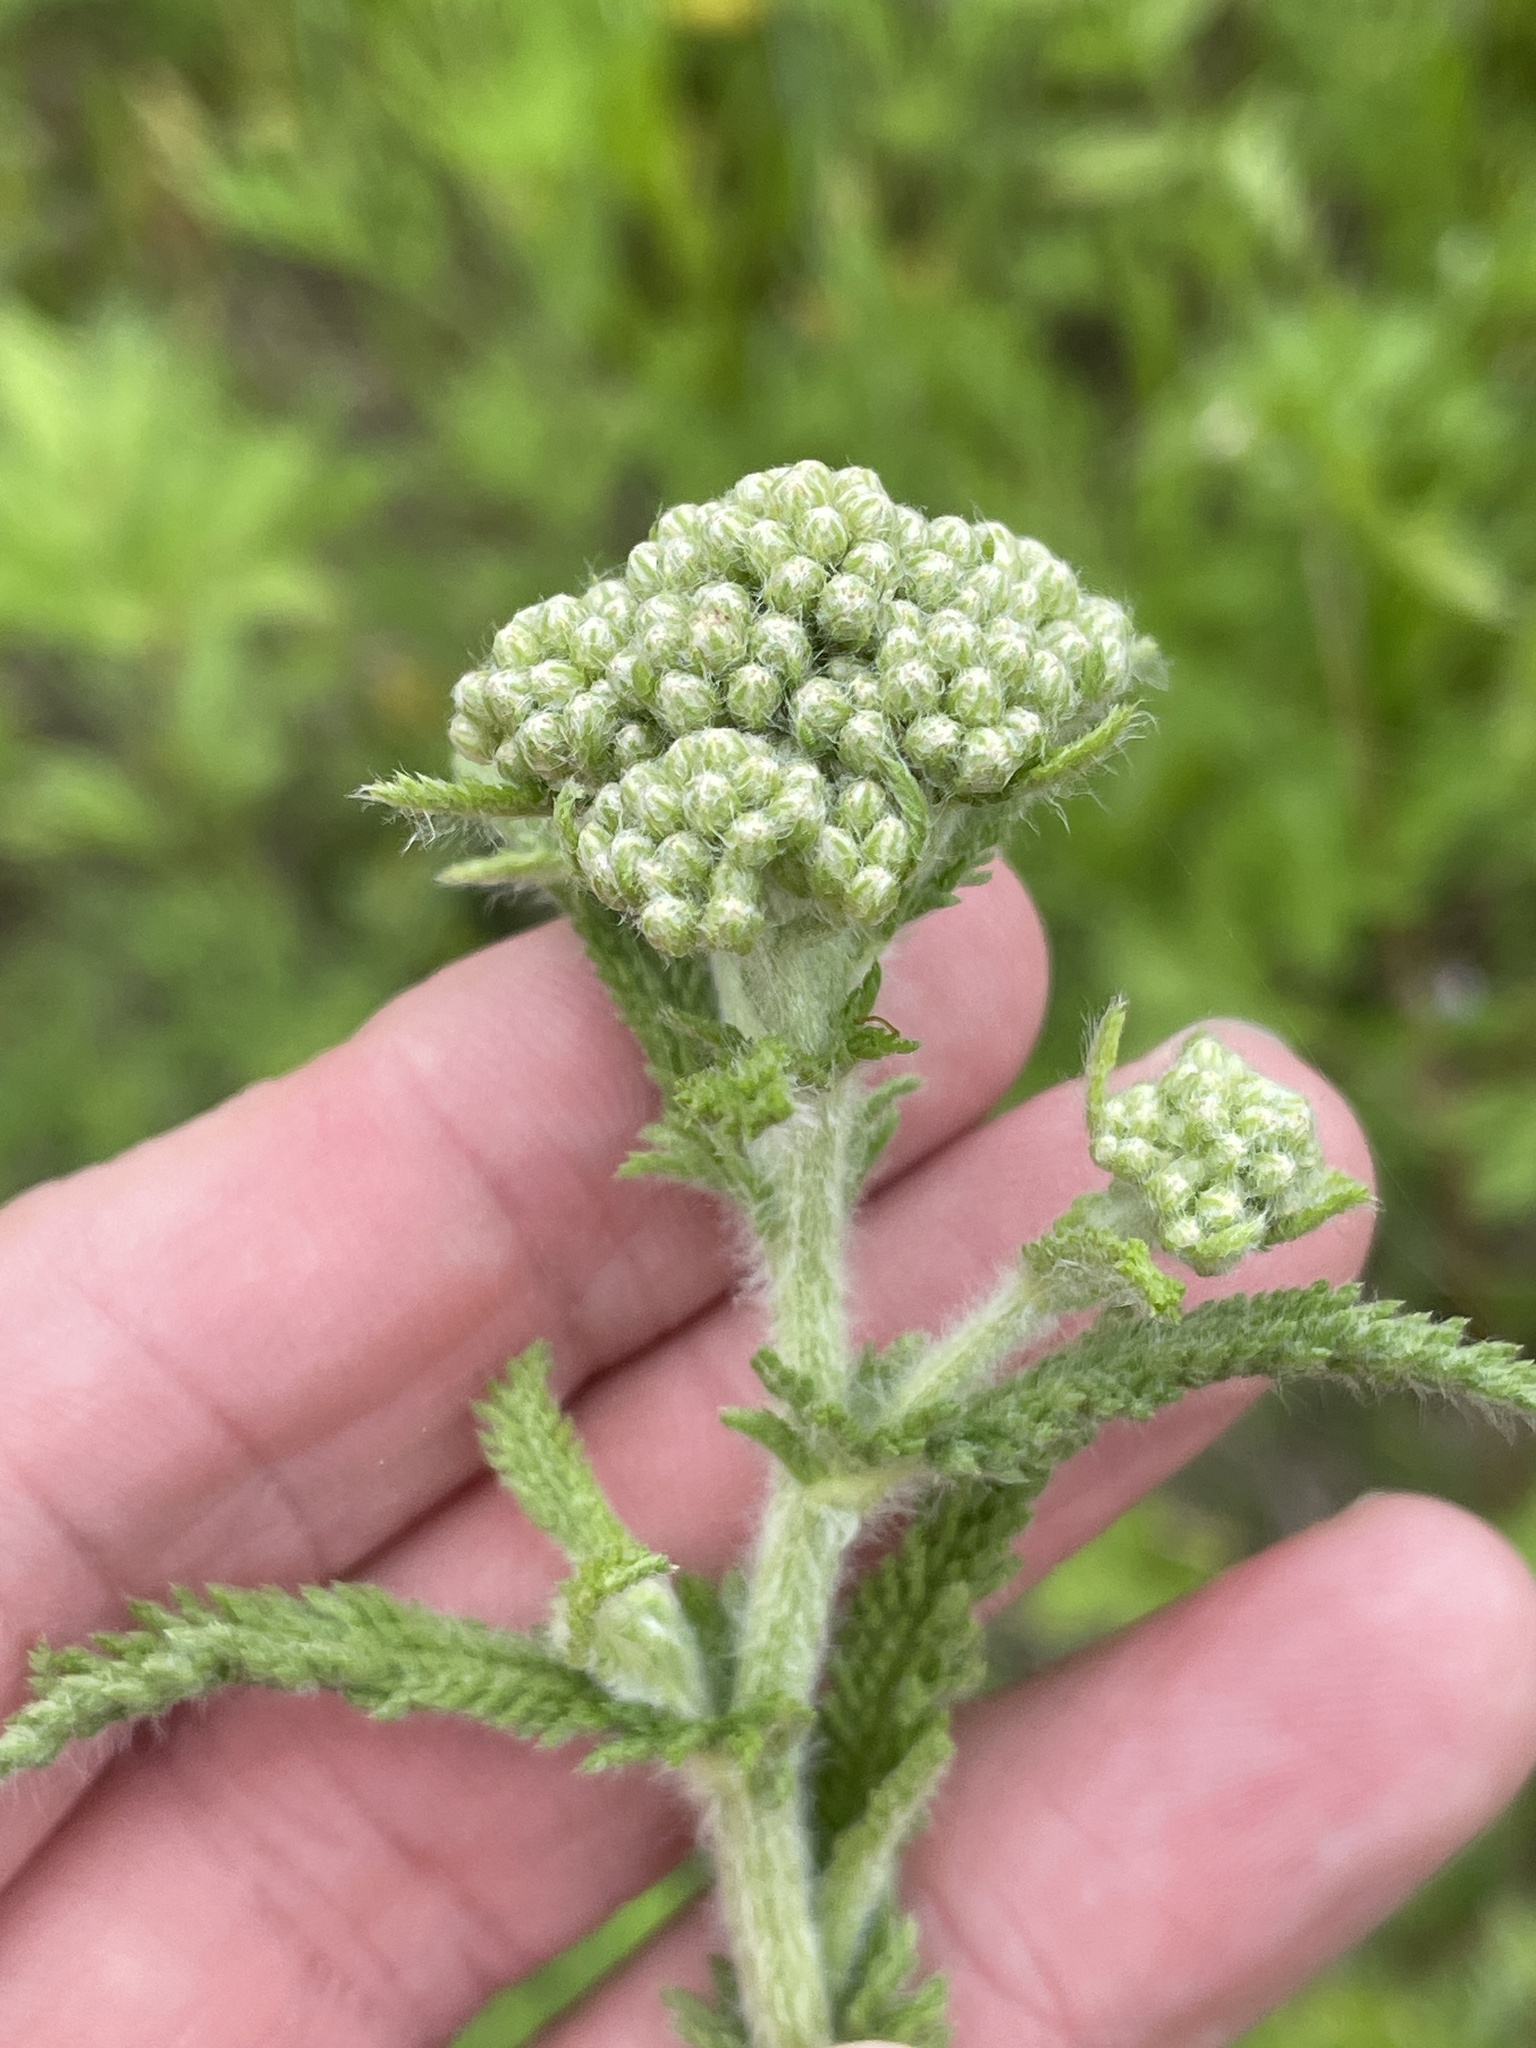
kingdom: Plantae
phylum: Tracheophyta
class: Magnoliopsida
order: Asterales
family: Asteraceae
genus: Achillea
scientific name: Achillea millefolium
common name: Yarrow
